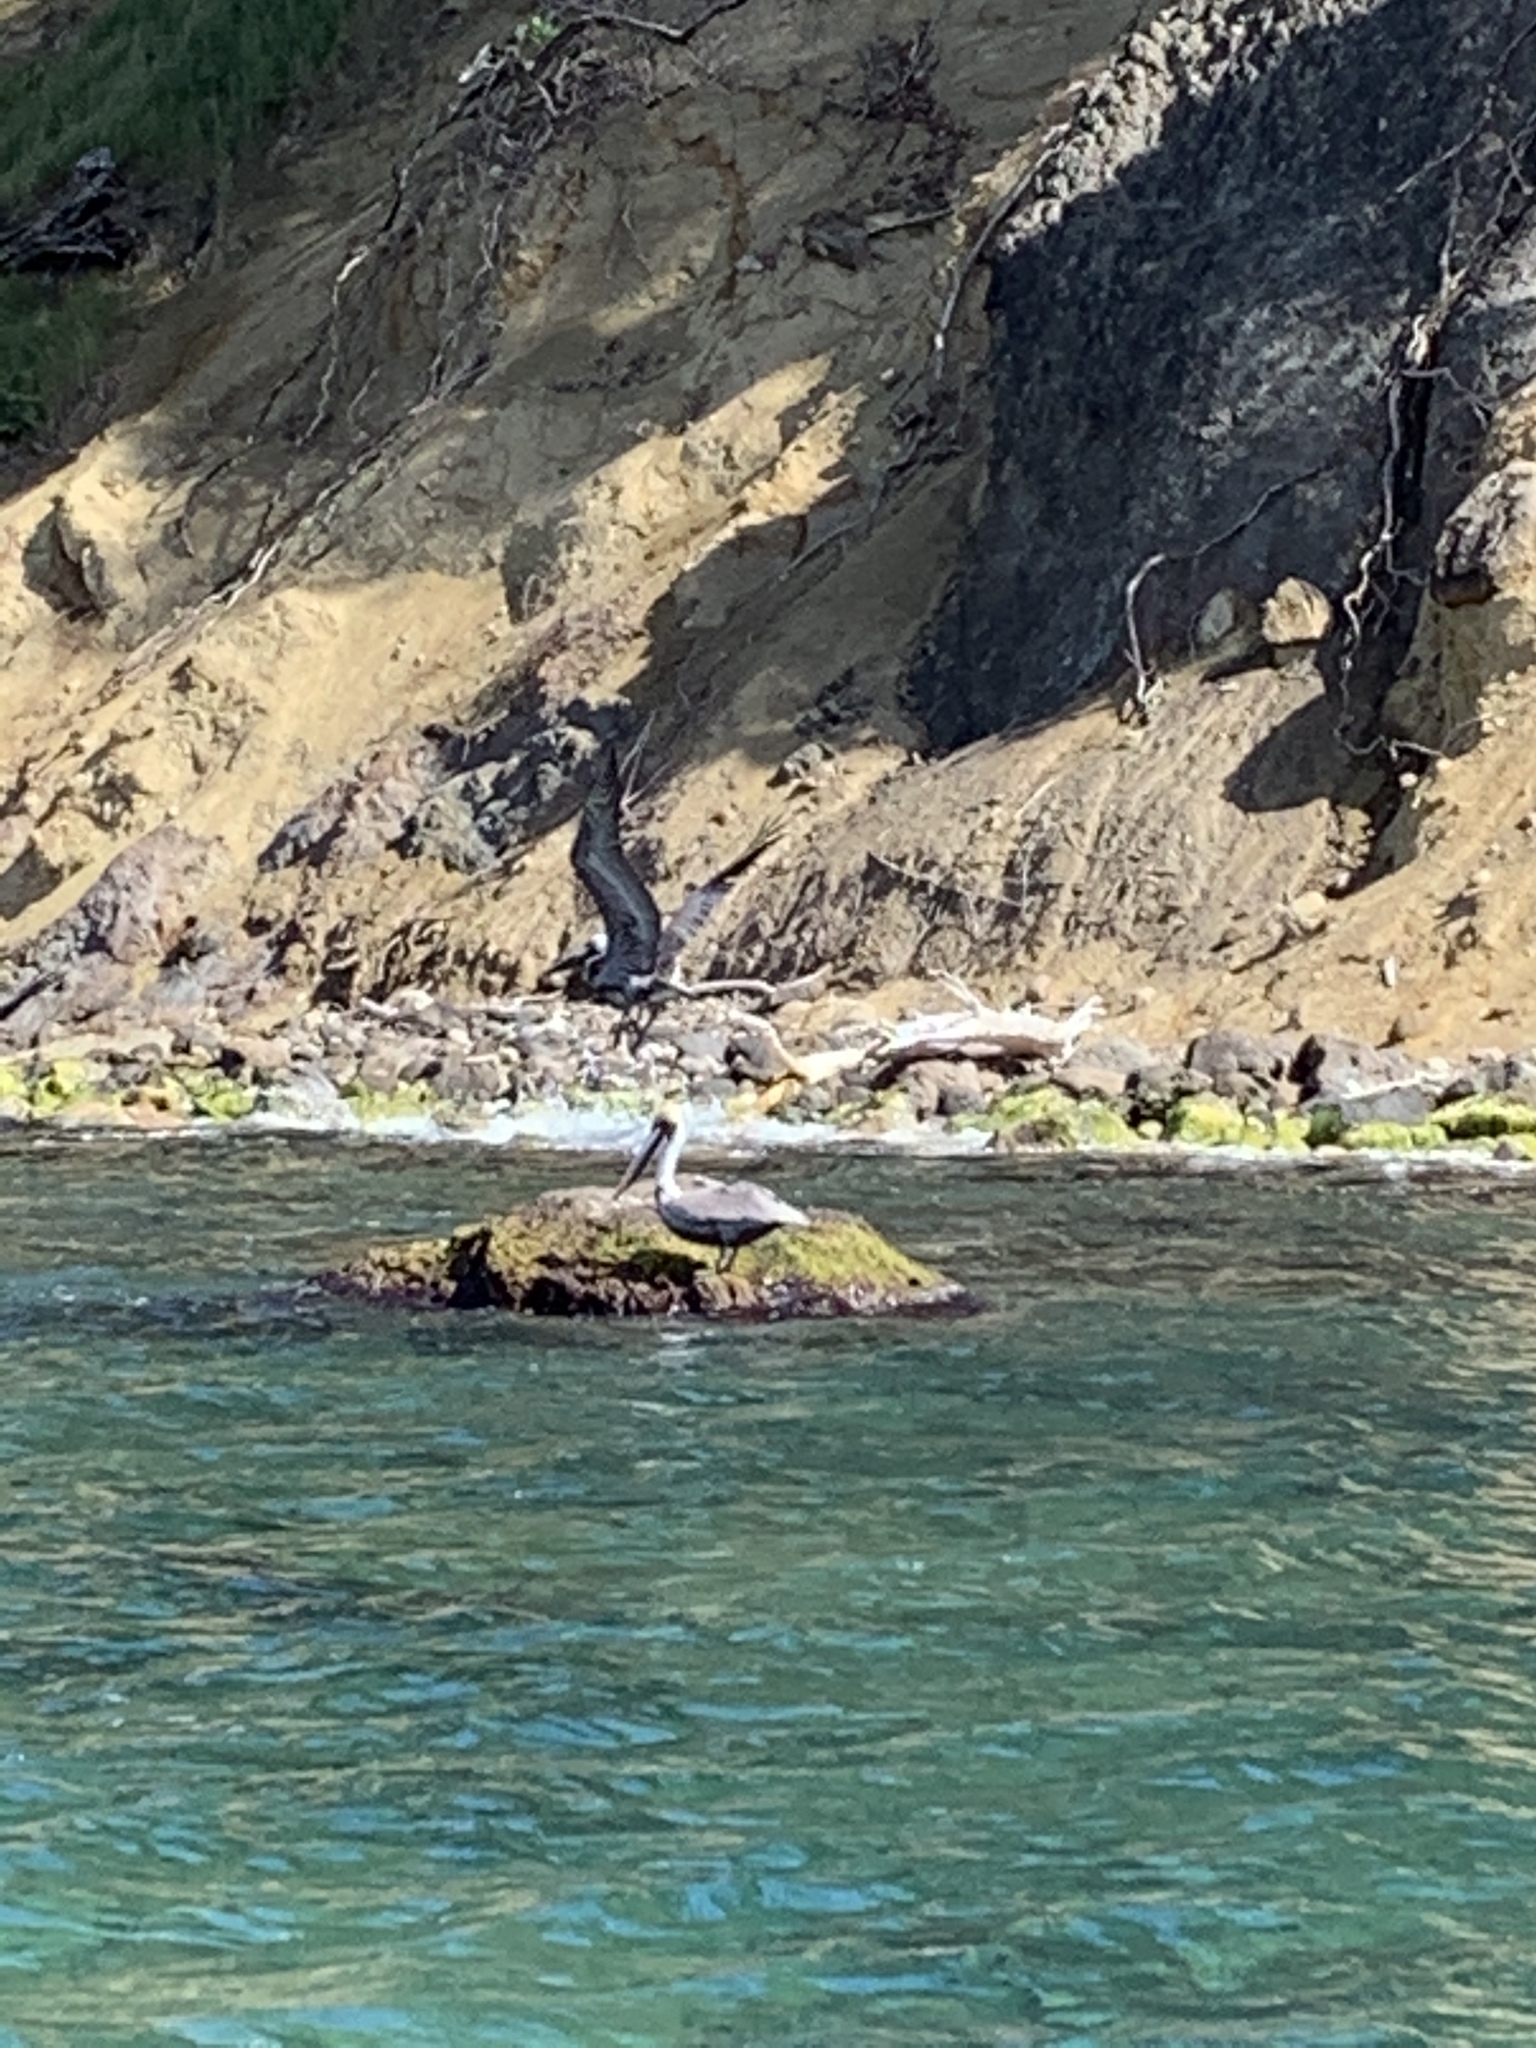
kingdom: Animalia
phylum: Chordata
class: Aves
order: Pelecaniformes
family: Pelecanidae
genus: Pelecanus
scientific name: Pelecanus occidentalis
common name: Brown pelican
